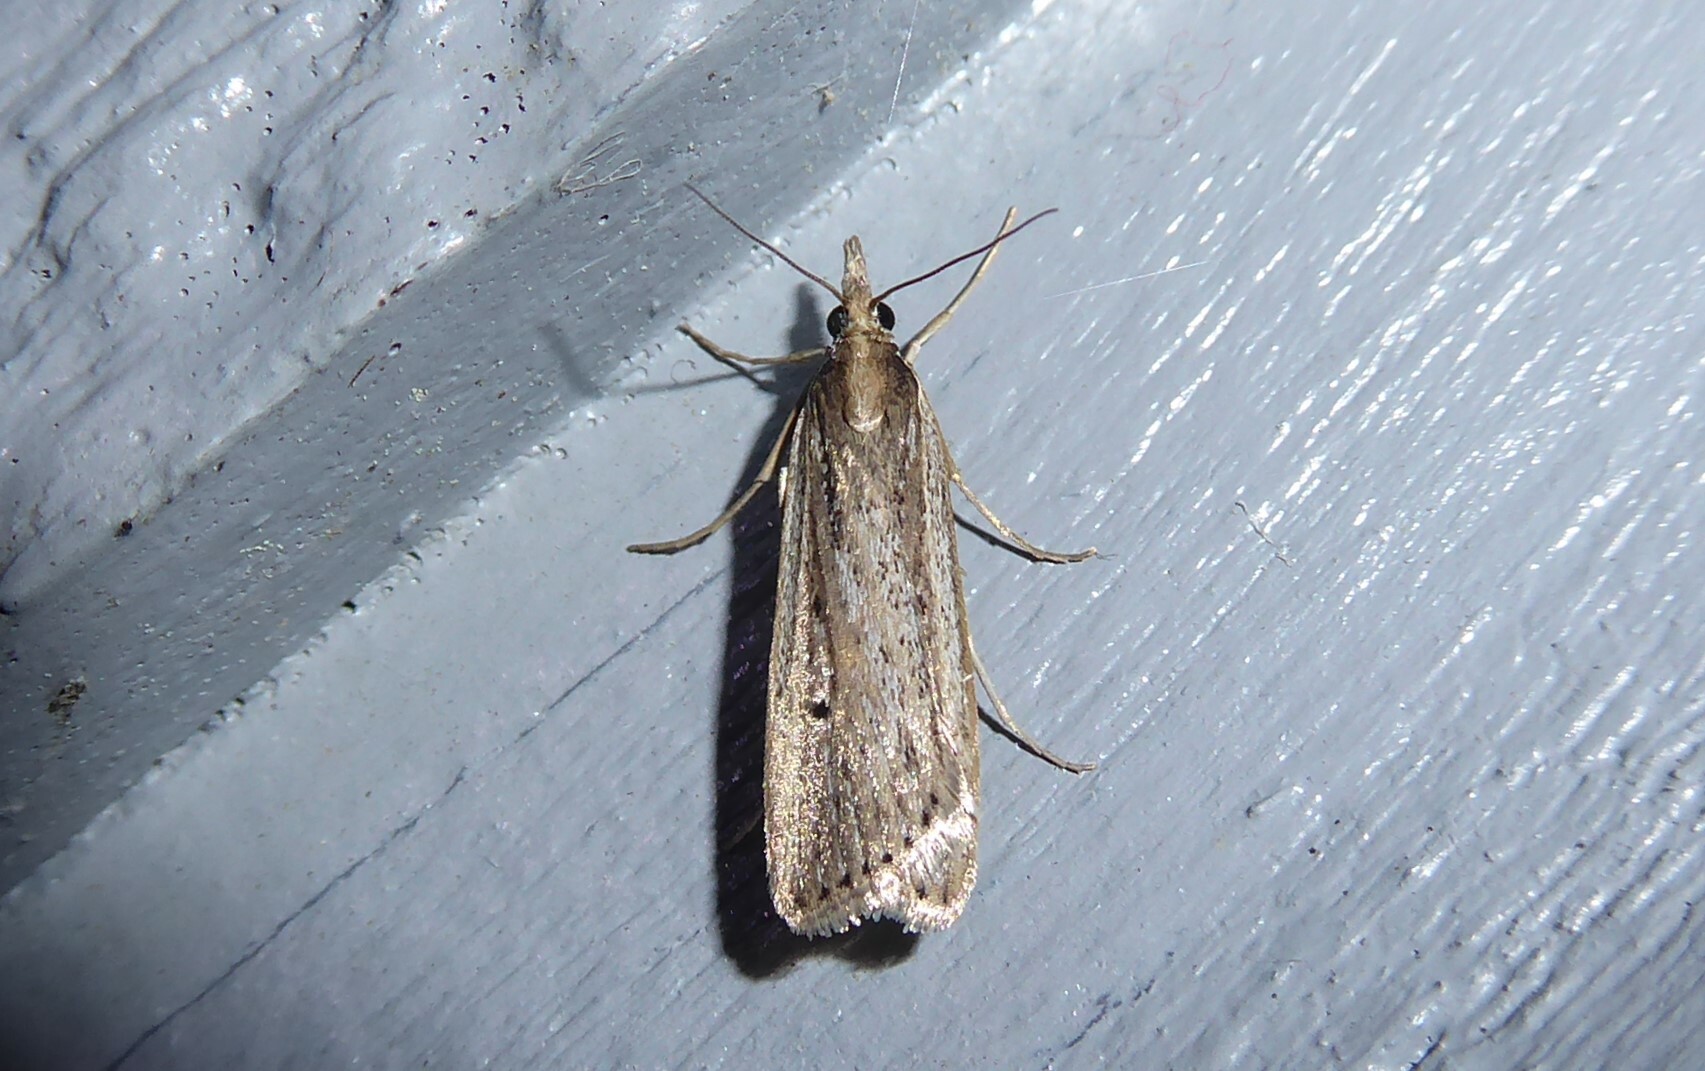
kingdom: Animalia
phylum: Arthropoda
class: Insecta
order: Lepidoptera
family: Crambidae
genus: Eudonia
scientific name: Eudonia sabulosella
